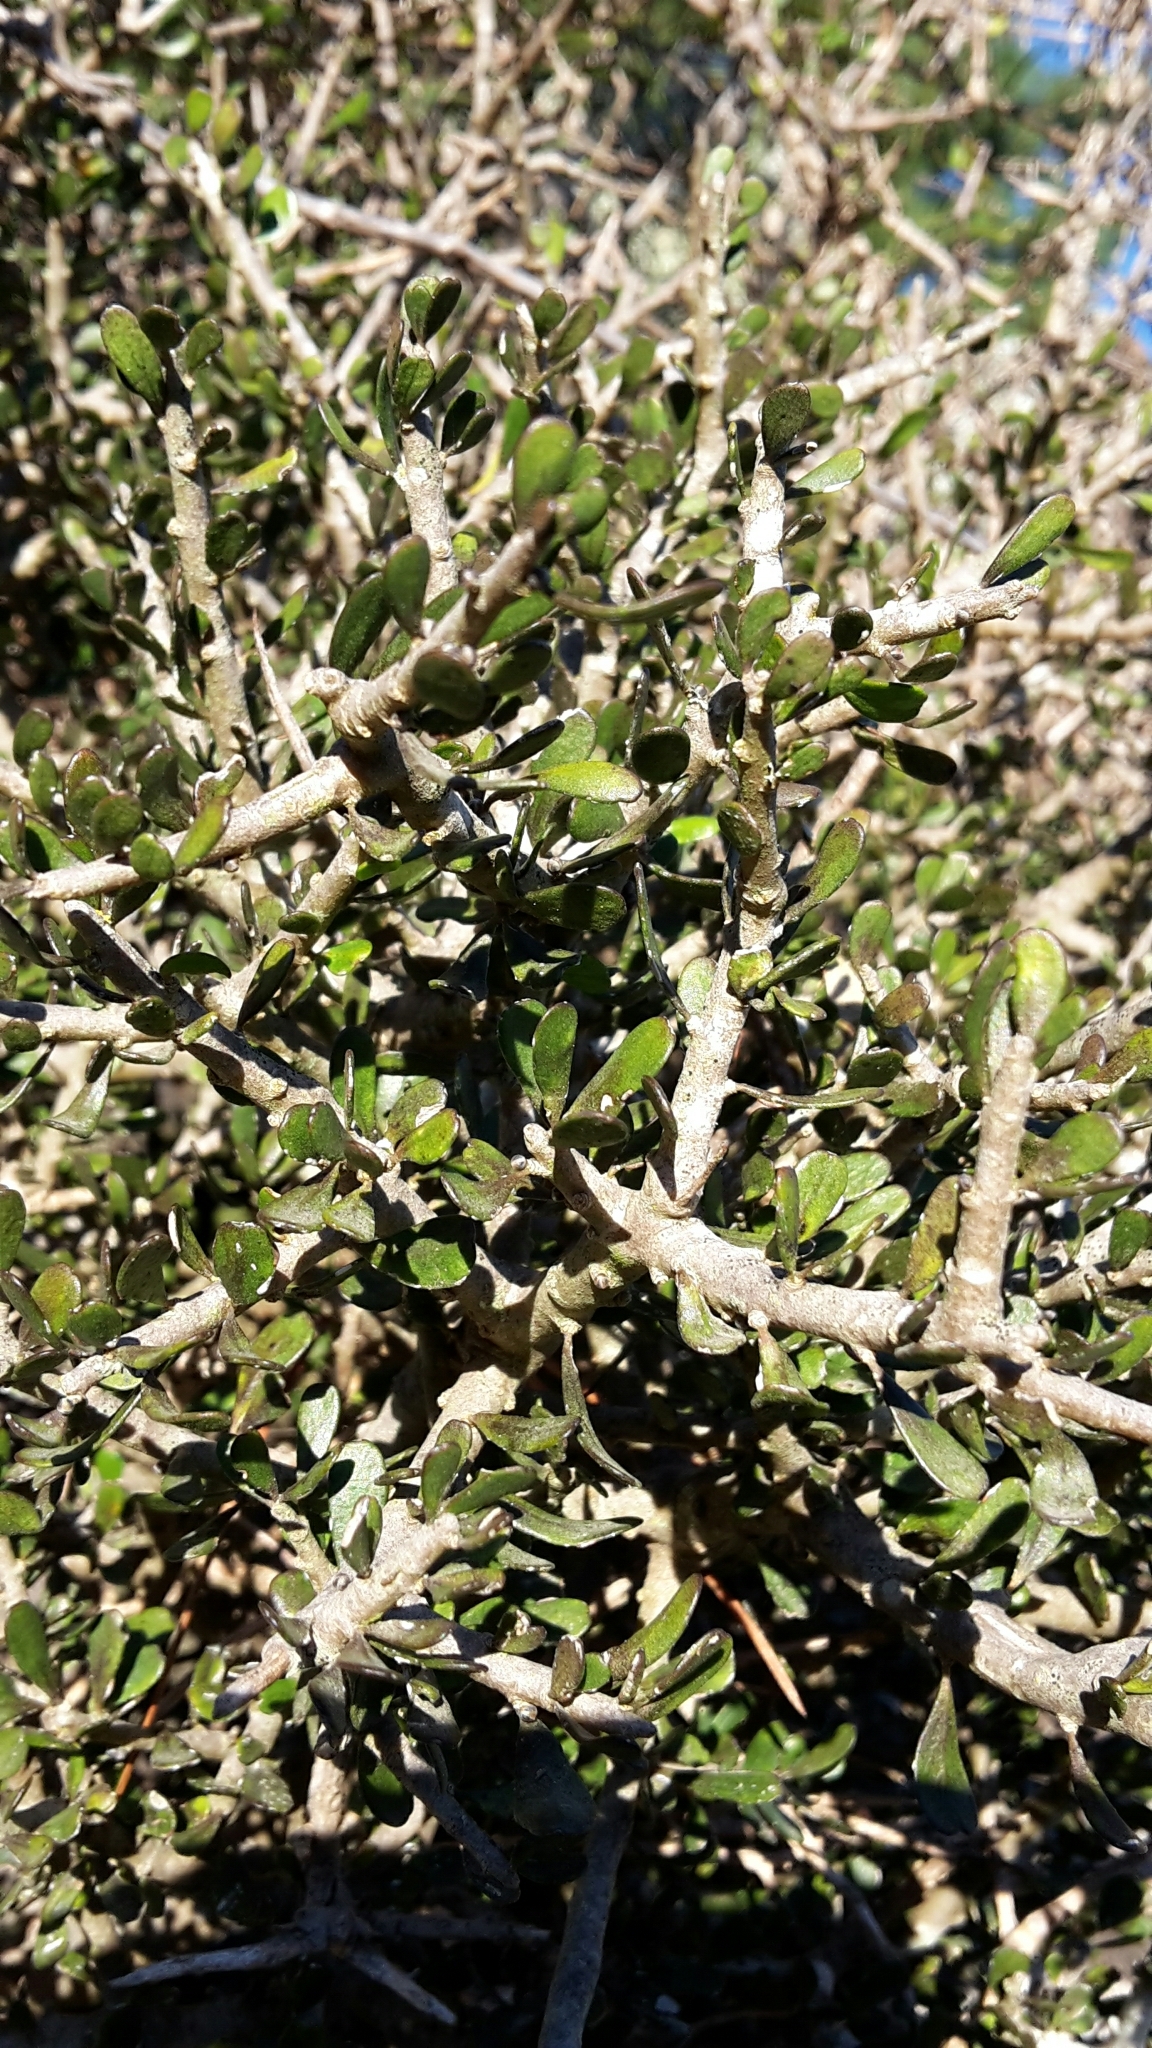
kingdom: Plantae
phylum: Tracheophyta
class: Magnoliopsida
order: Malpighiales
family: Violaceae
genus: Melicytus
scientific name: Melicytus alpinus
